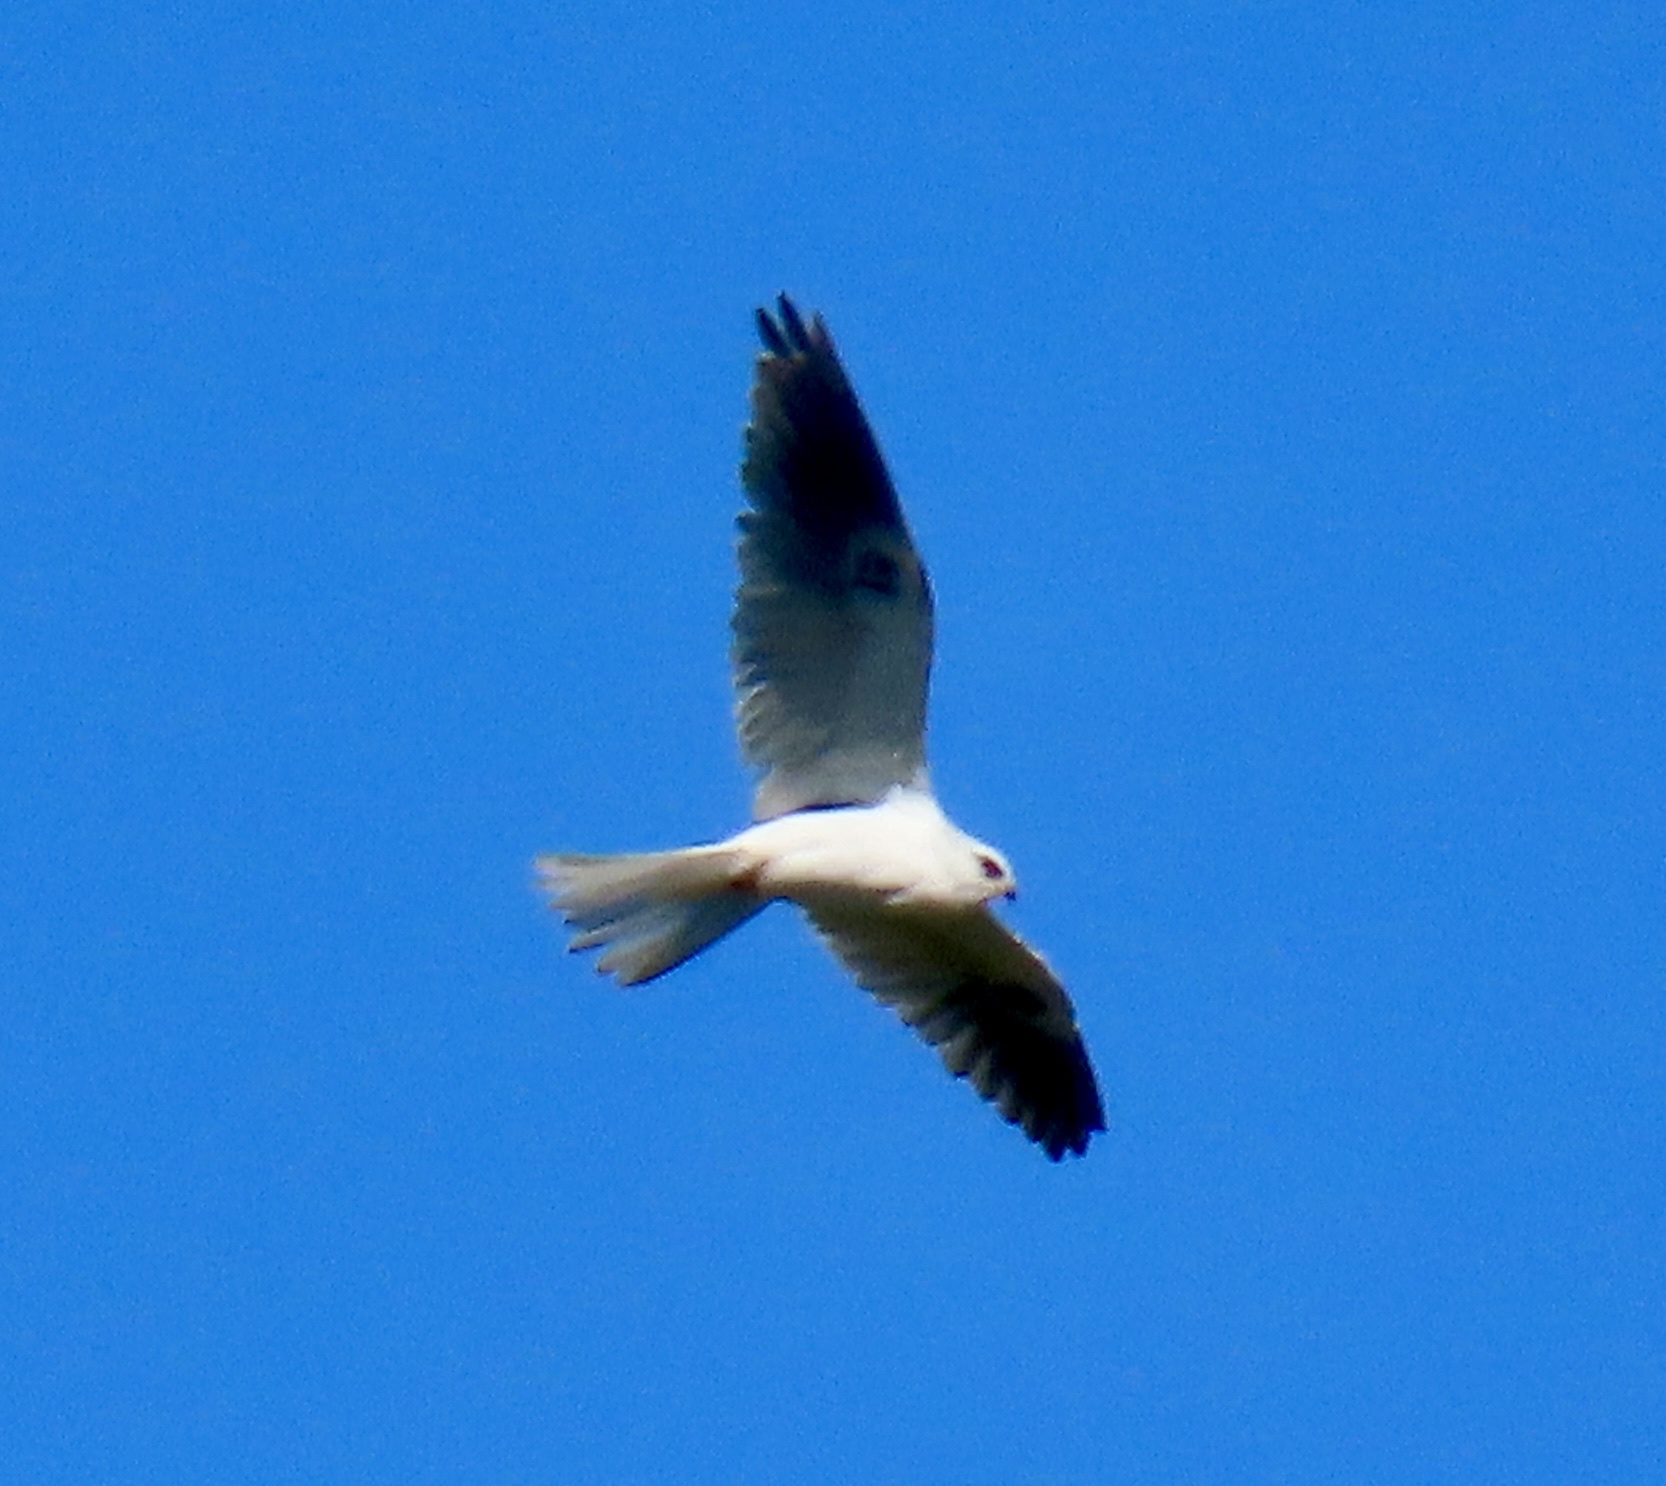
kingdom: Animalia
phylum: Chordata
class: Aves
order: Accipitriformes
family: Accipitridae
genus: Elanus
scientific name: Elanus leucurus
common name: White-tailed kite
